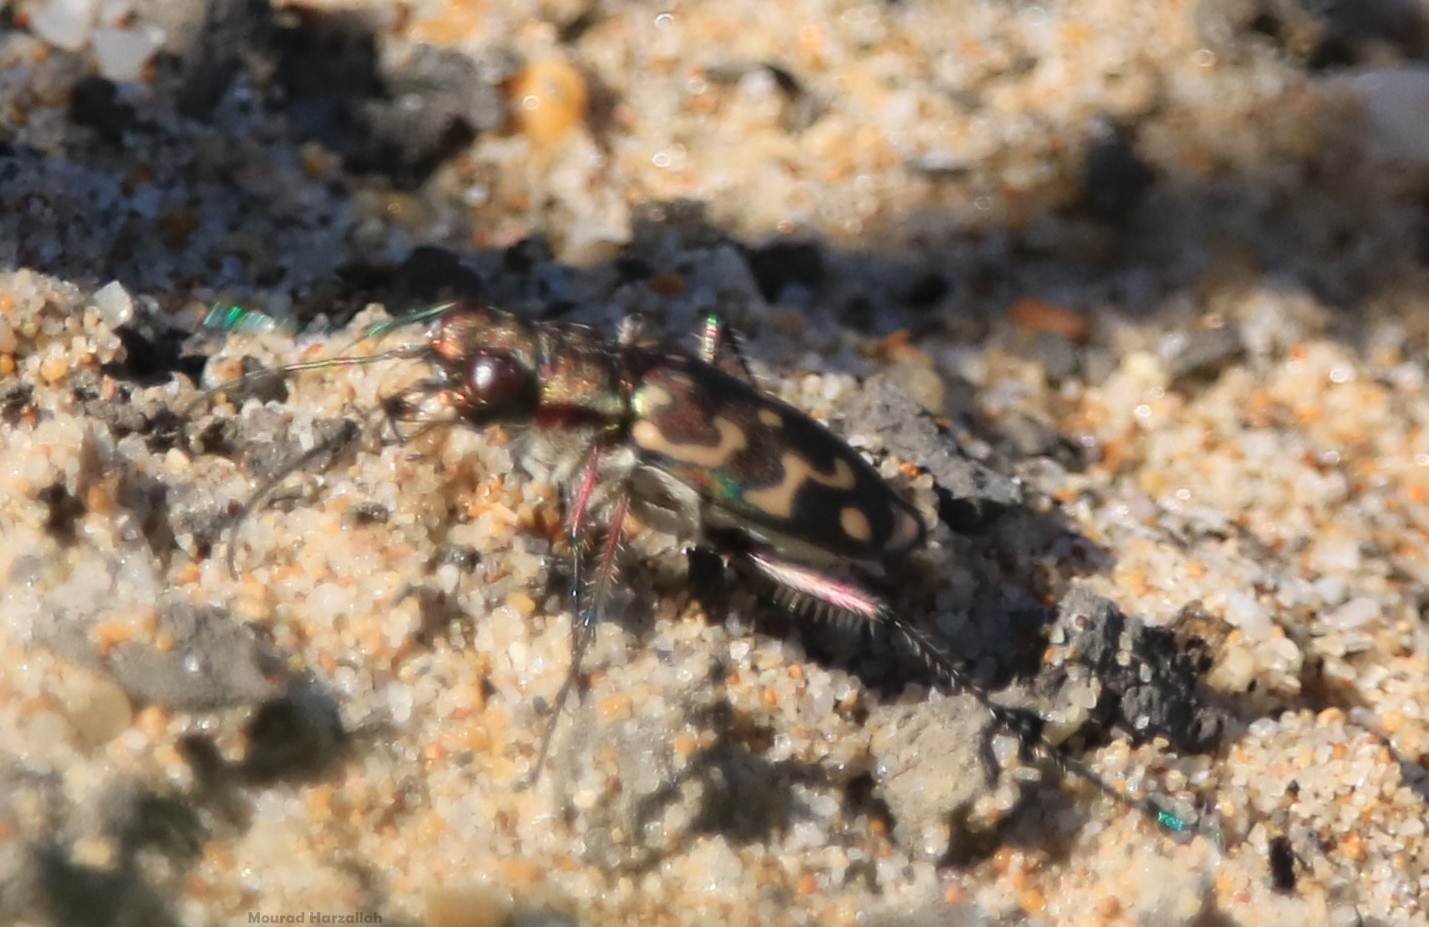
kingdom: Animalia
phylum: Arthropoda
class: Insecta
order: Coleoptera
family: Carabidae
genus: Lophyra
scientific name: Lophyra flexuosa
